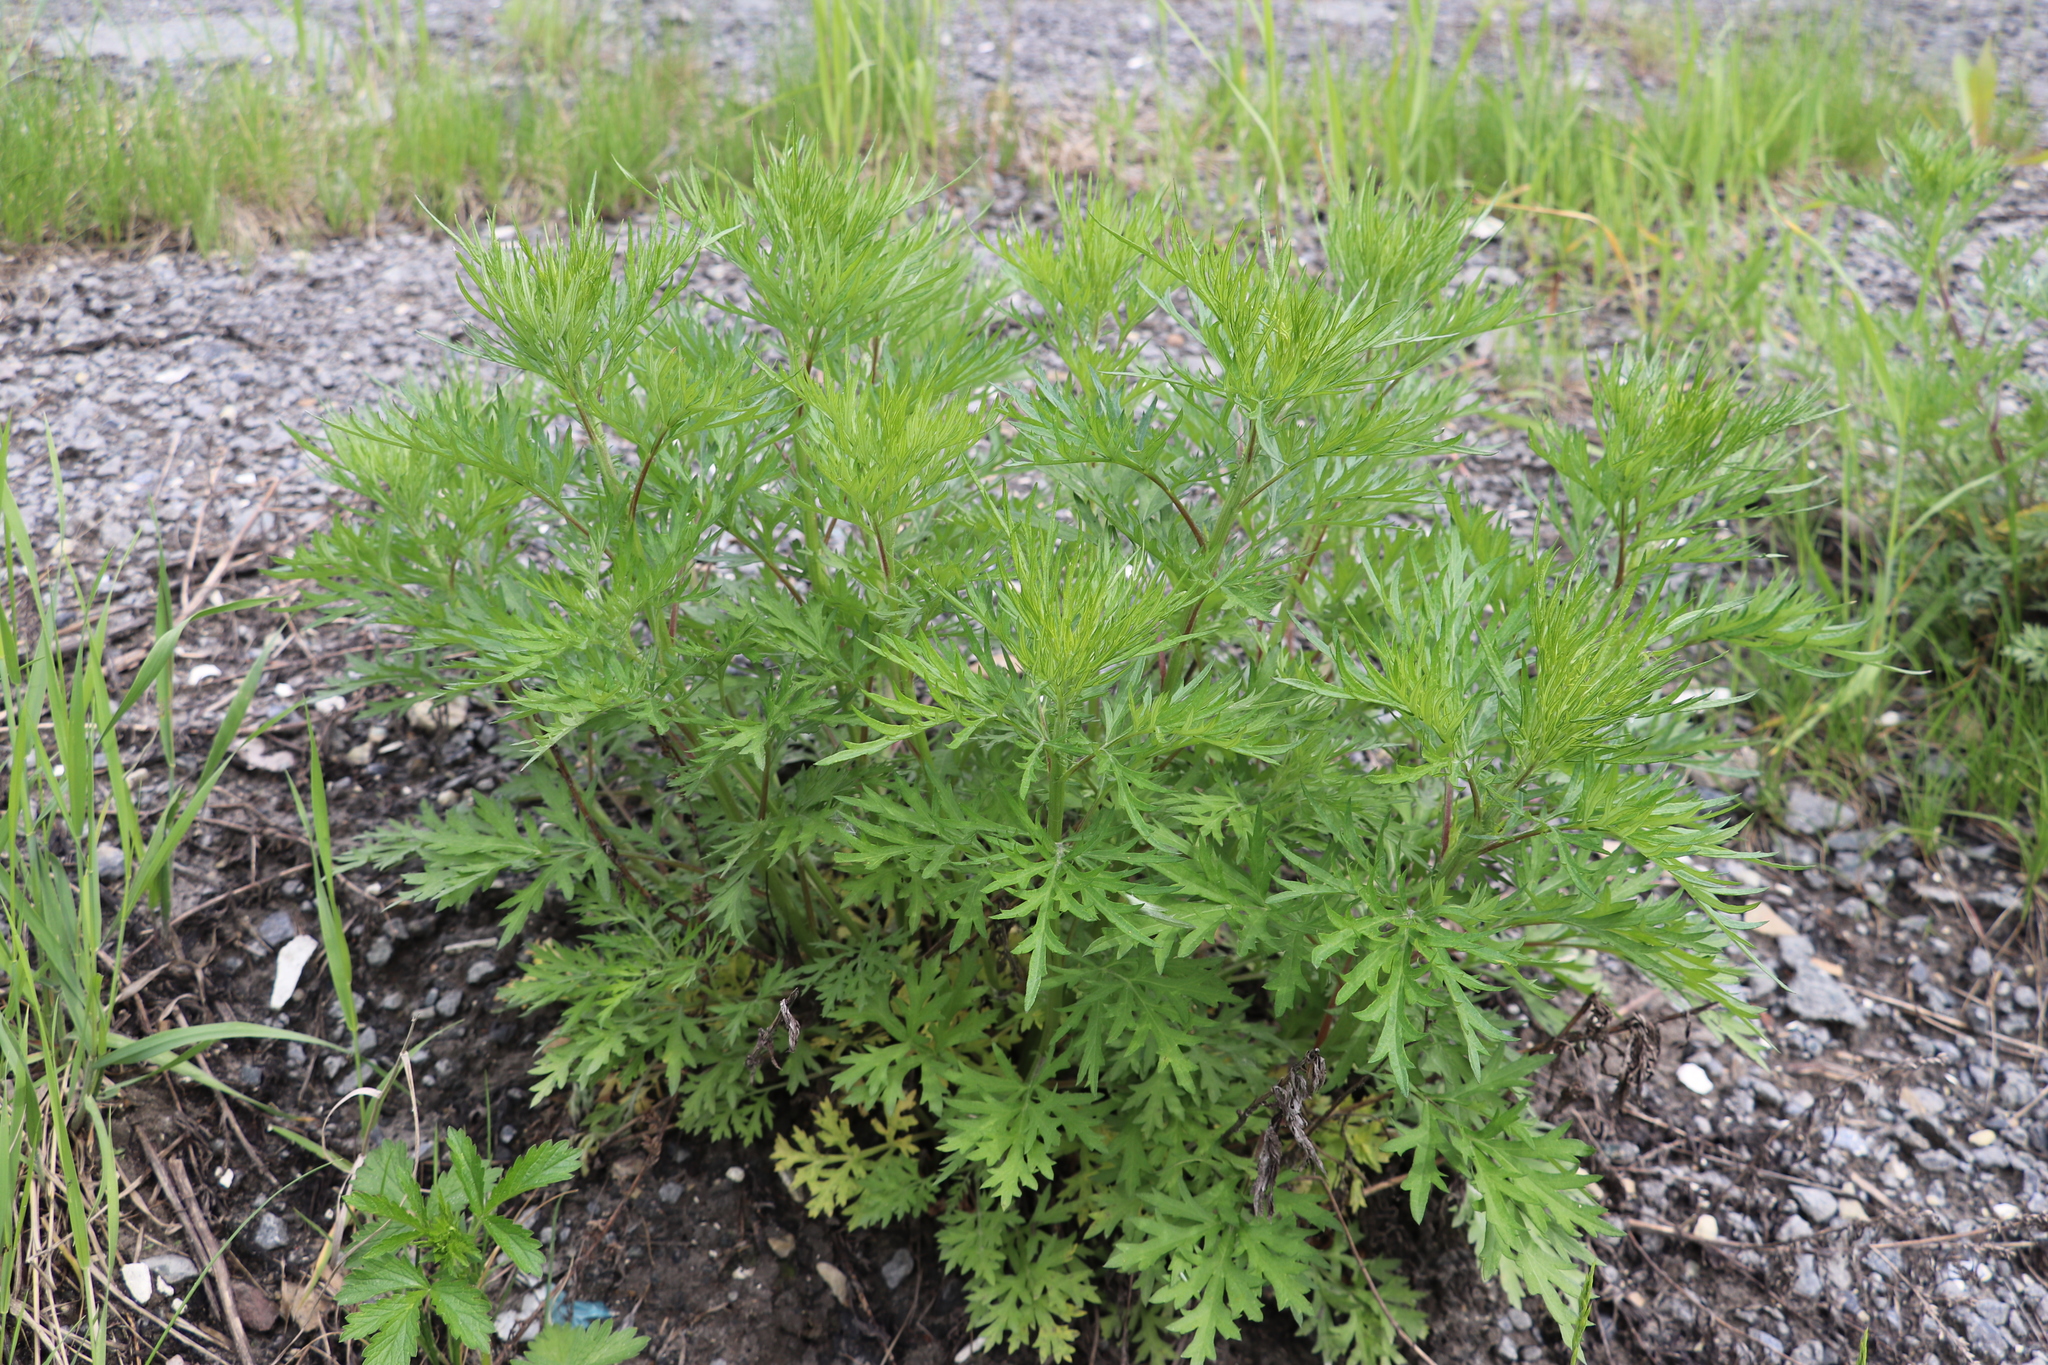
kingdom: Plantae
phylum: Tracheophyta
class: Magnoliopsida
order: Asterales
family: Asteraceae
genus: Artemisia
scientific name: Artemisia vulgaris
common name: Mugwort
